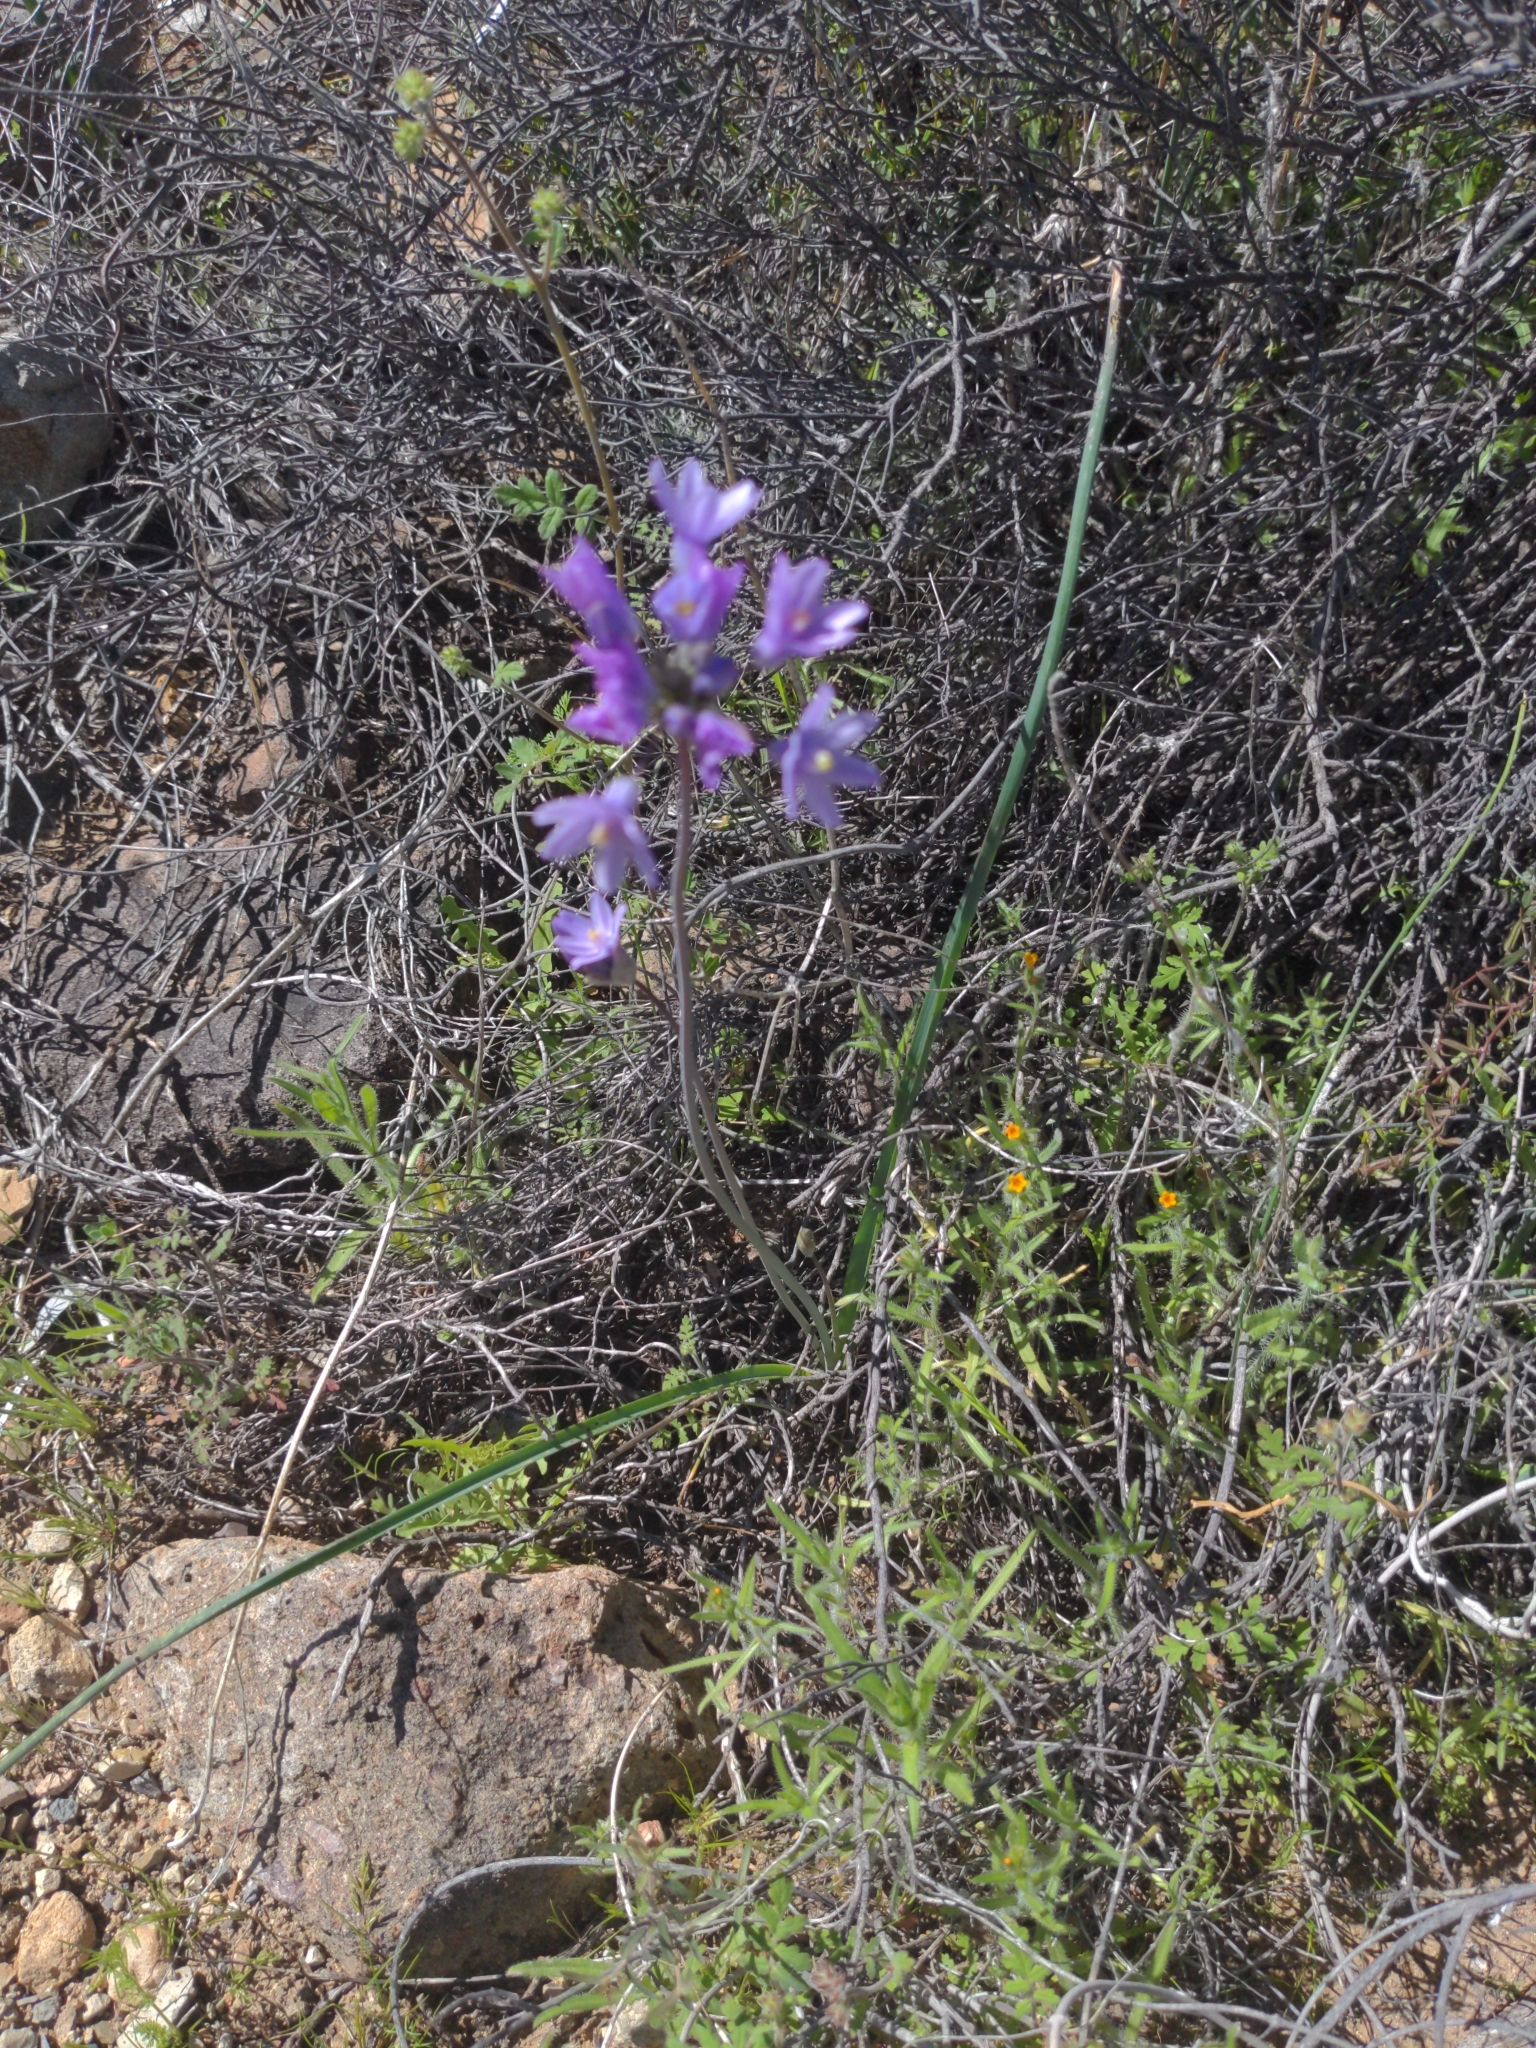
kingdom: Plantae
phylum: Tracheophyta
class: Liliopsida
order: Asparagales
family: Asparagaceae
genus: Dipterostemon
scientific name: Dipterostemon capitatus
